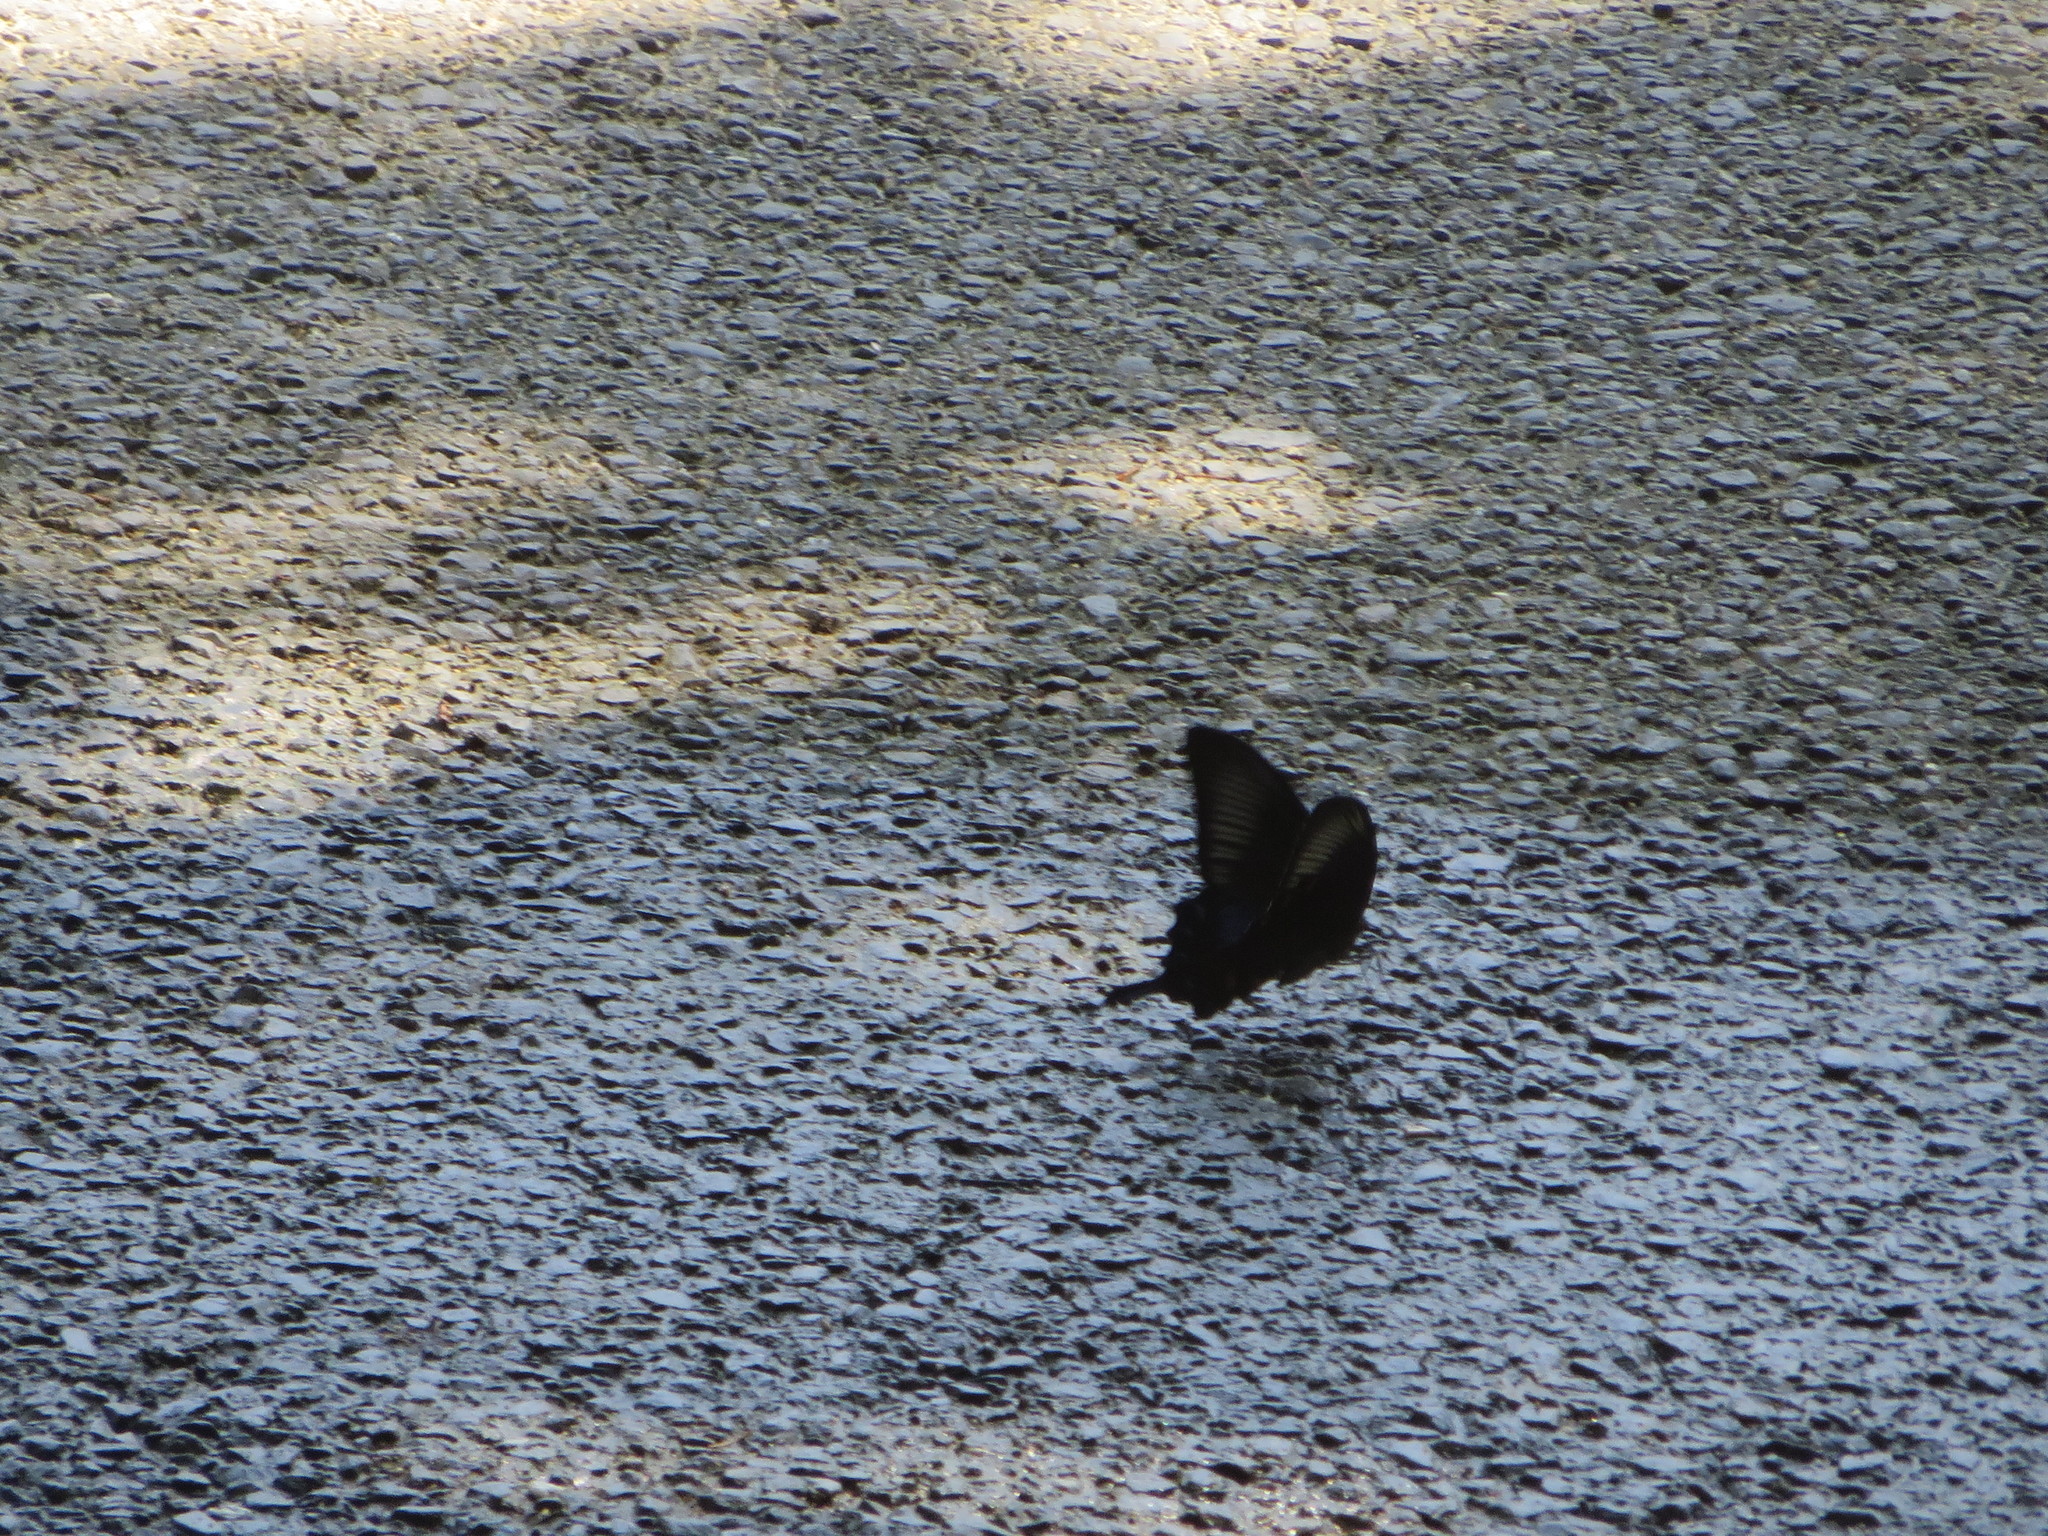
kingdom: Animalia
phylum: Arthropoda
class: Insecta
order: Lepidoptera
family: Papilionidae
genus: Papilio
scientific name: Papilio dehaanii
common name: Japanese peacock swallowtail
